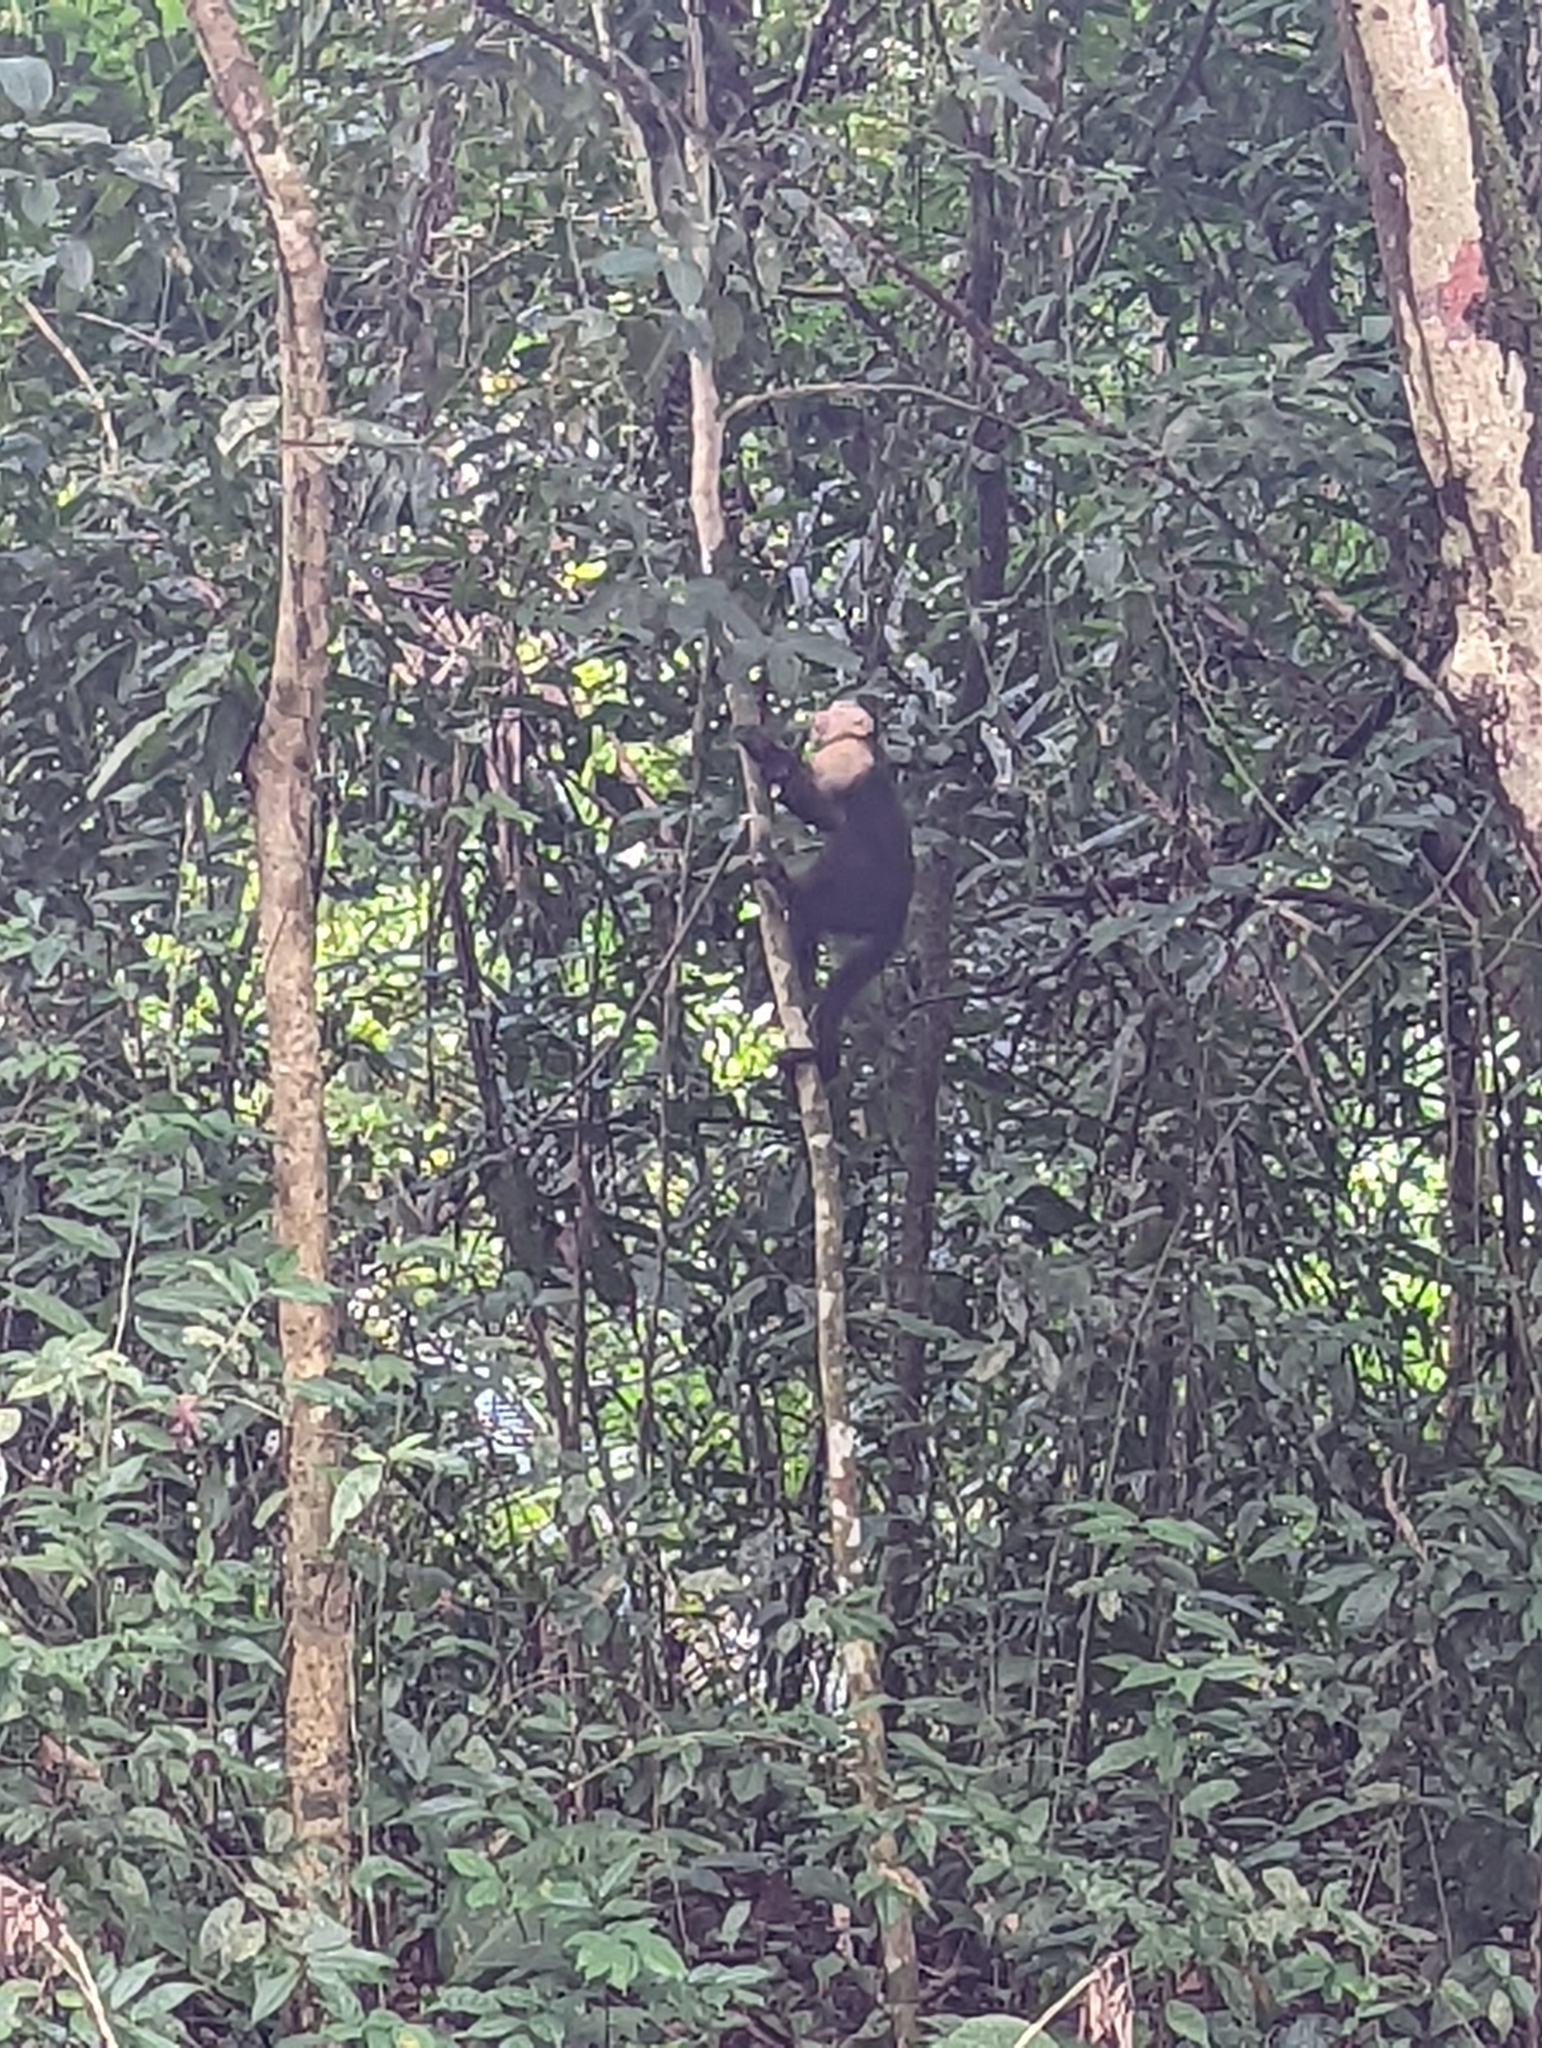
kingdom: Animalia
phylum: Chordata
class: Mammalia
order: Primates
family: Cebidae
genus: Cebus
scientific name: Cebus imitator
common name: Panamanian white-faced capuchin
